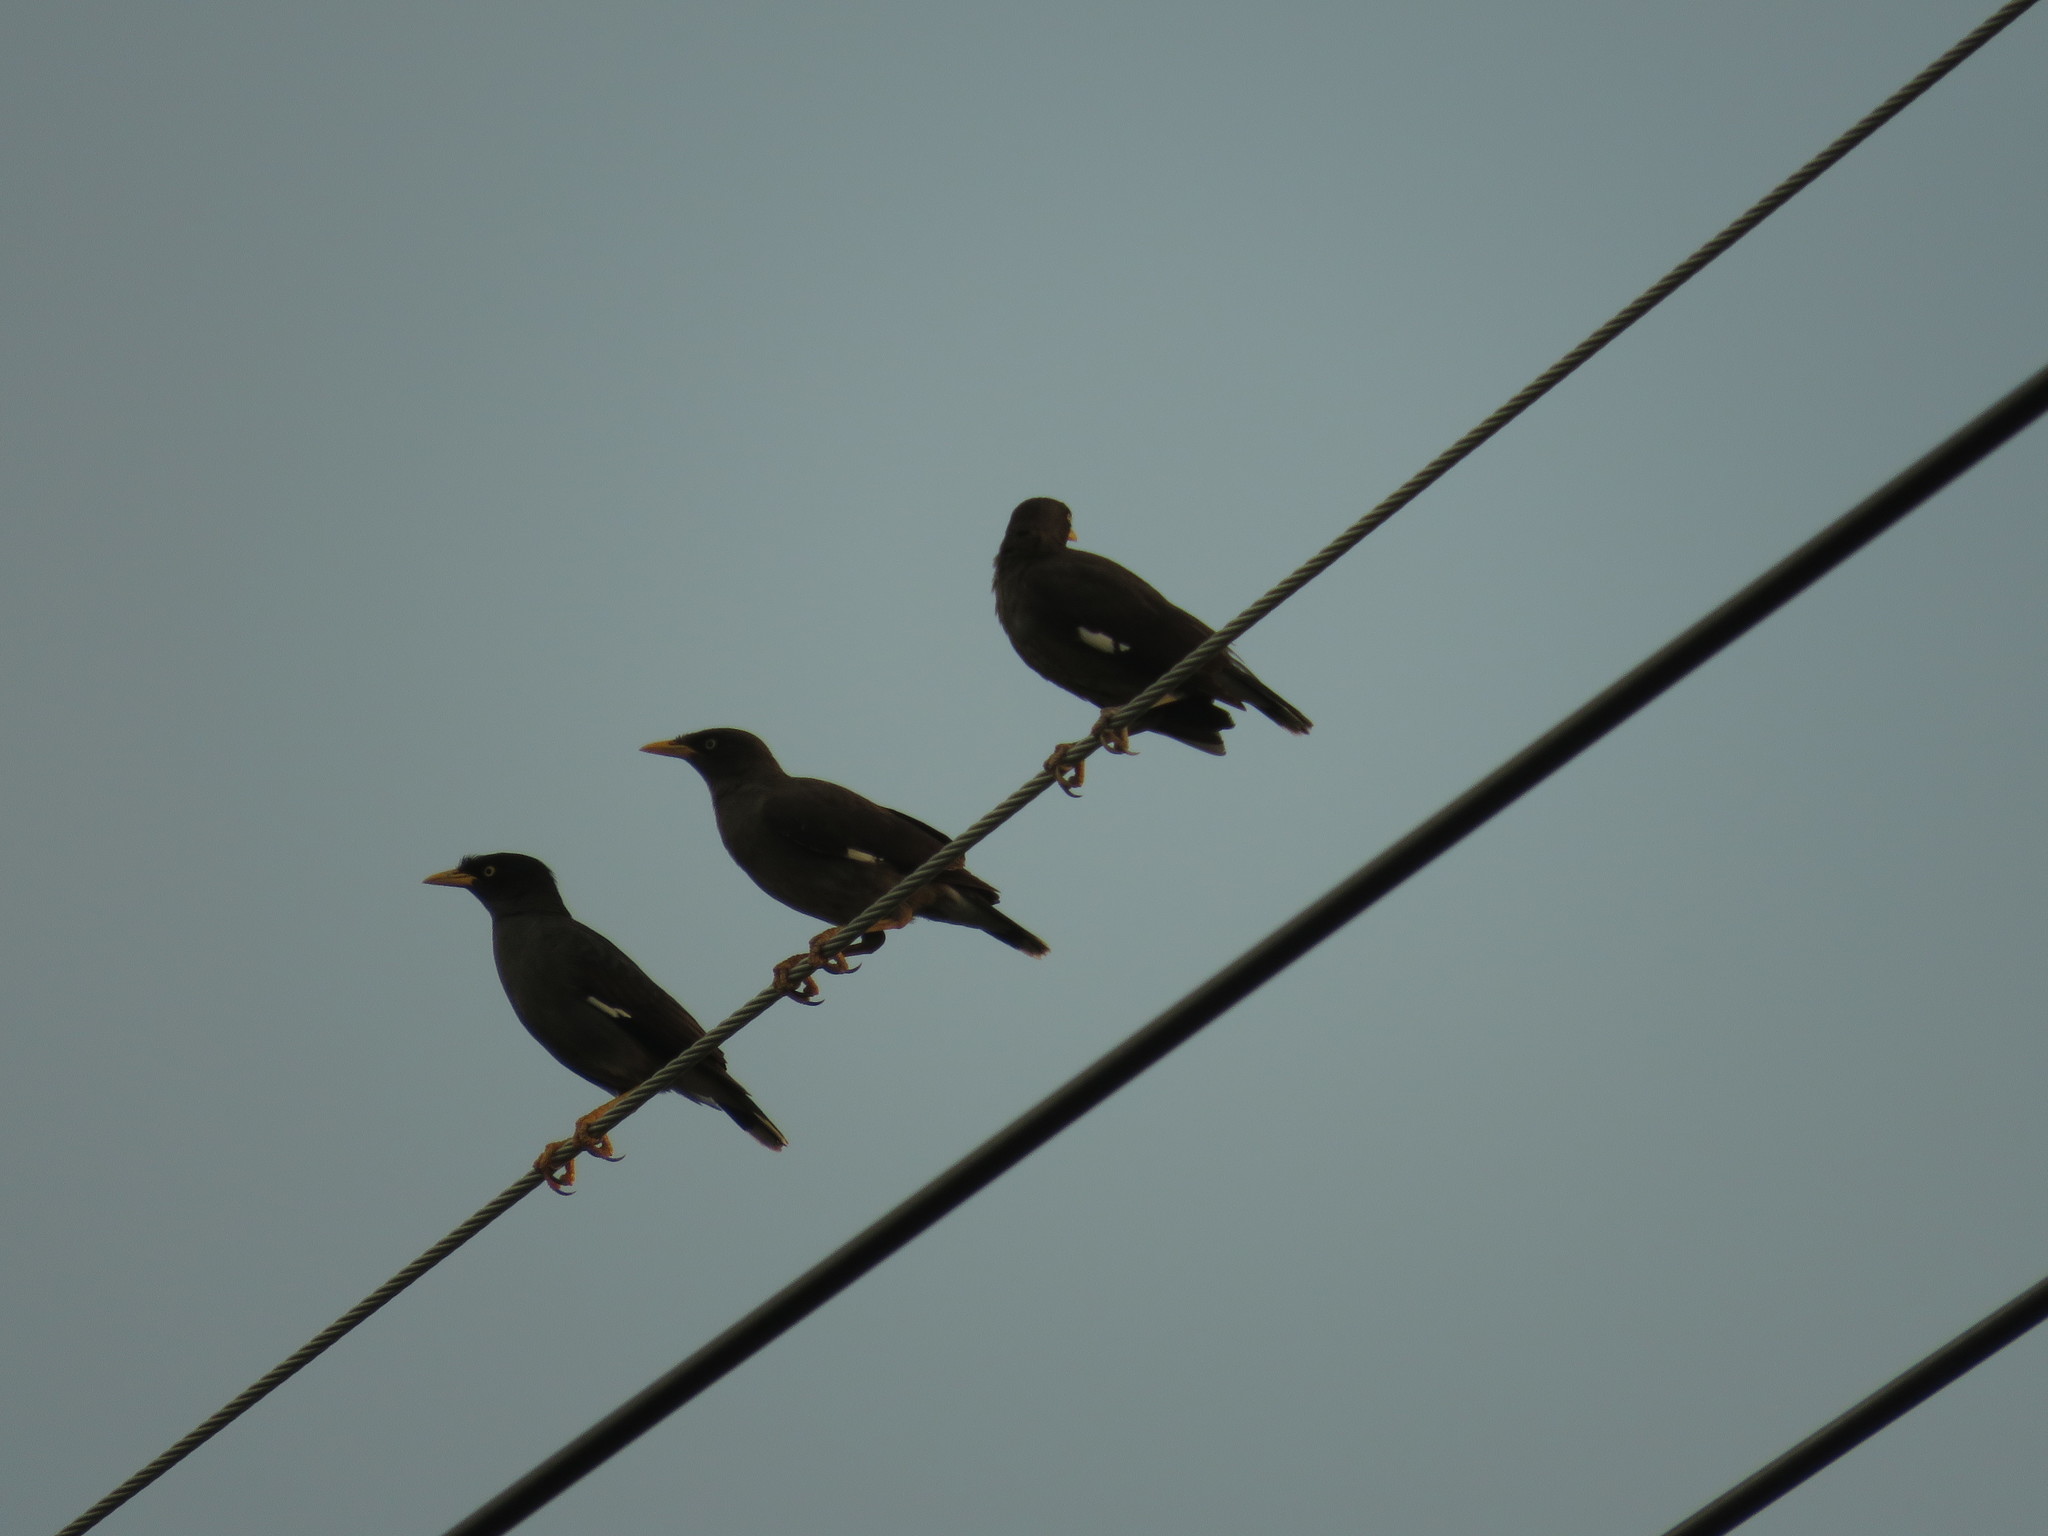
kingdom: Animalia
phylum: Chordata
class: Aves
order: Passeriformes
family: Sturnidae
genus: Acridotheres
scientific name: Acridotheres javanicus
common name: Javan myna
